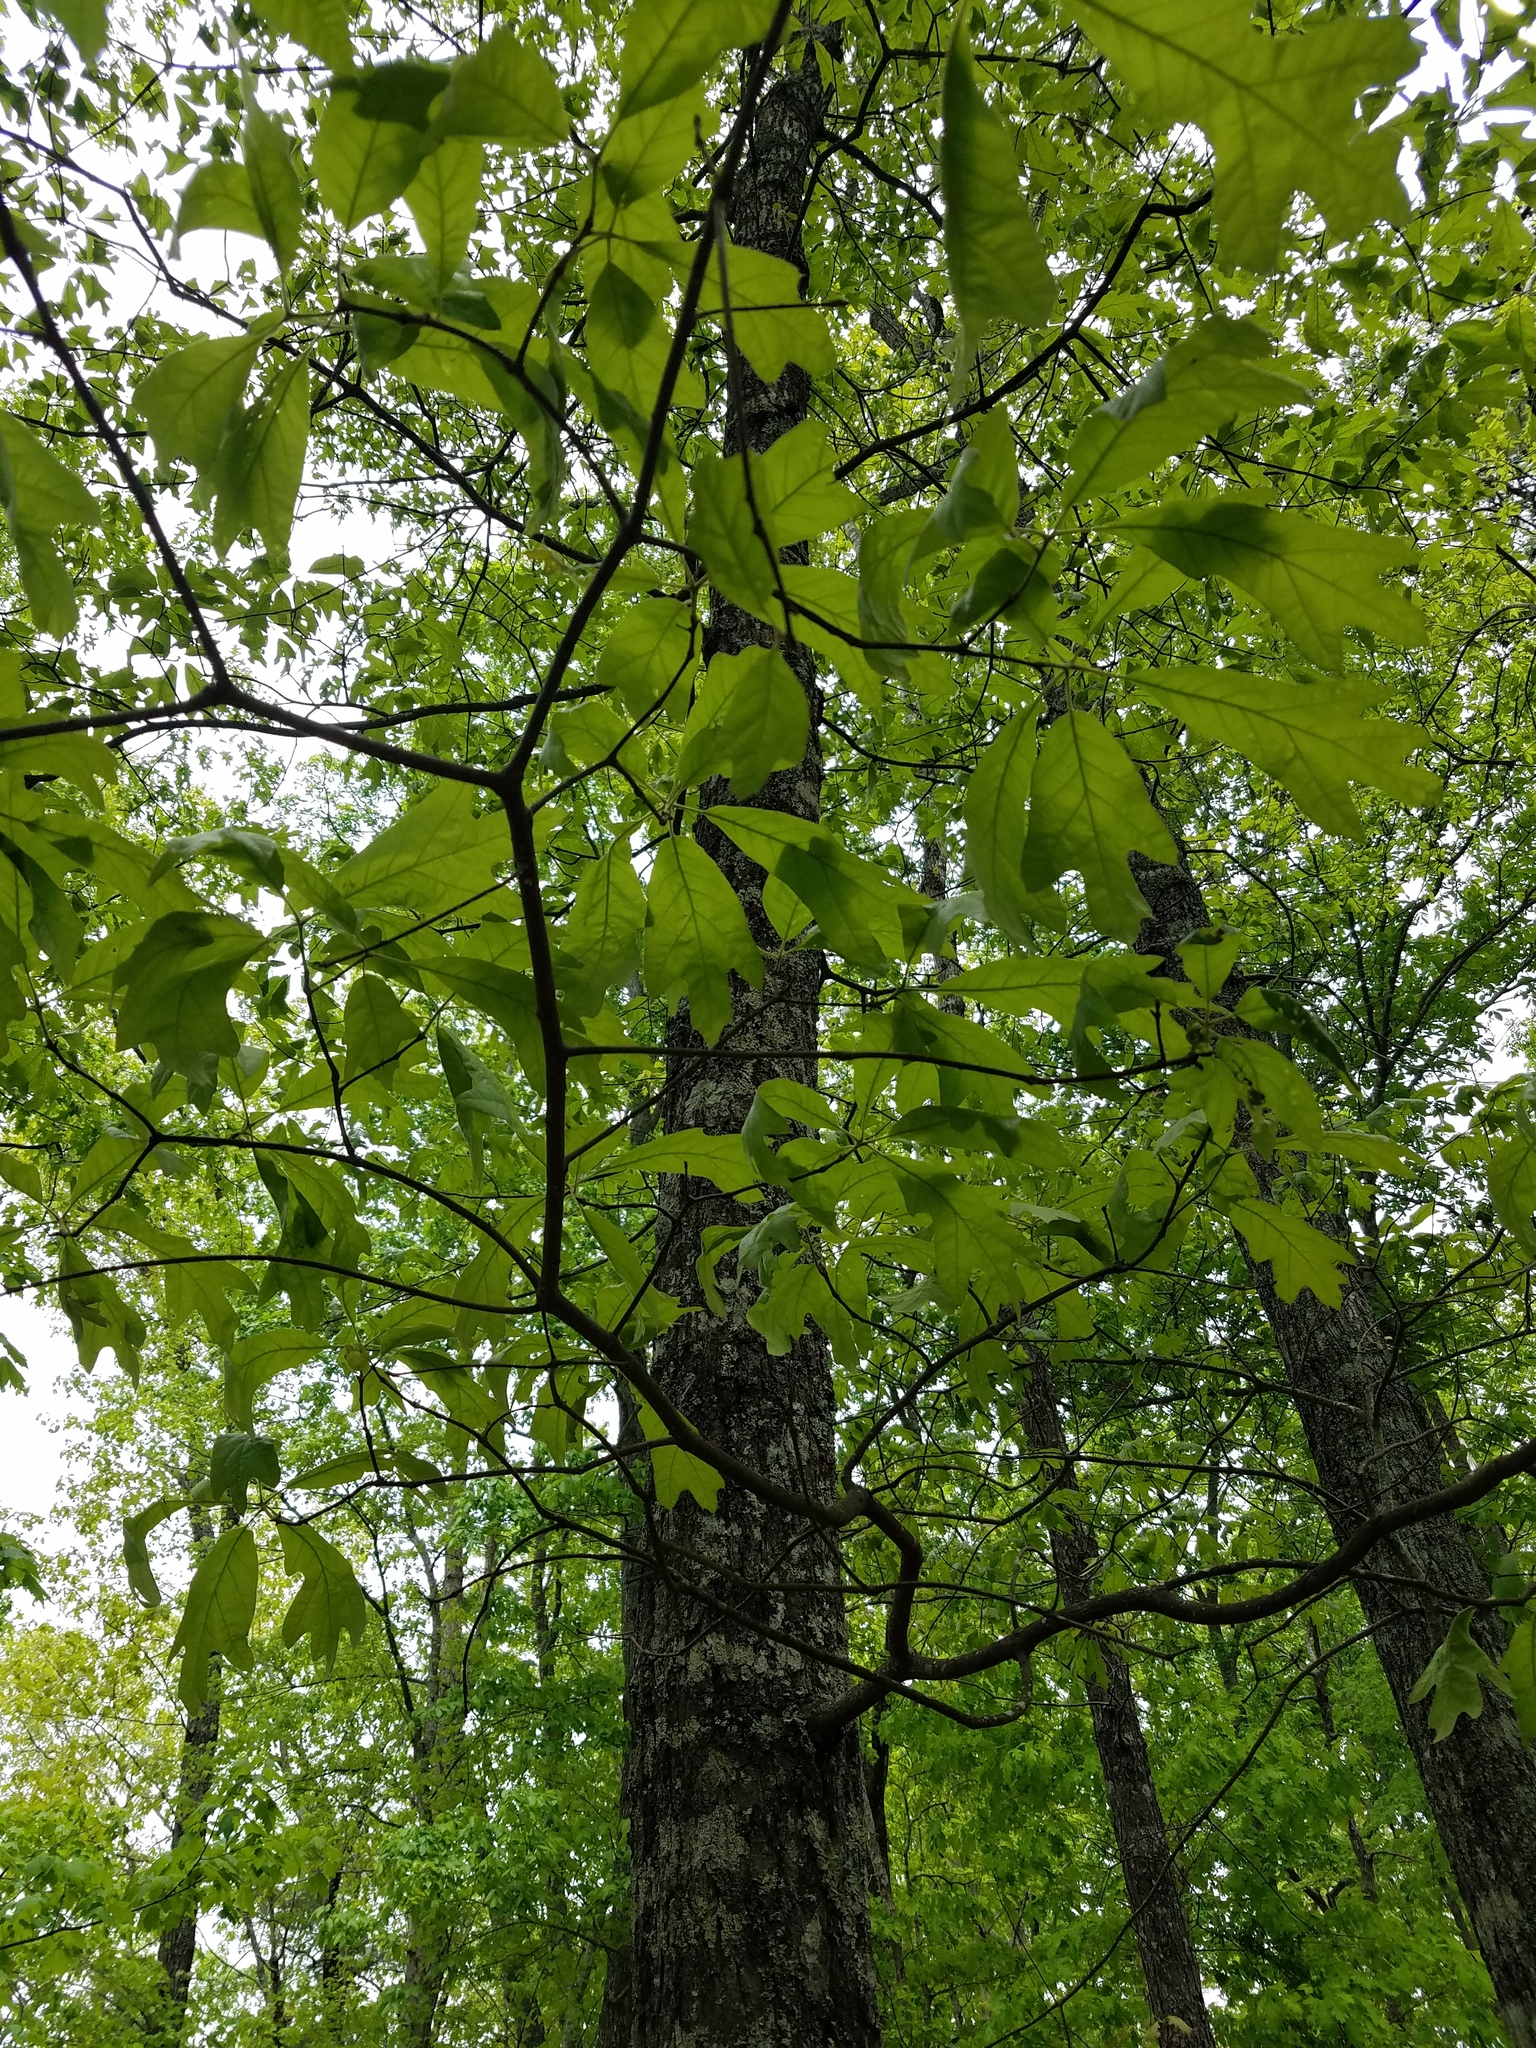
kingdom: Plantae
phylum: Tracheophyta
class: Magnoliopsida
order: Fagales
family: Fagaceae
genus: Quercus
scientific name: Quercus falcata
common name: Southern red oak
